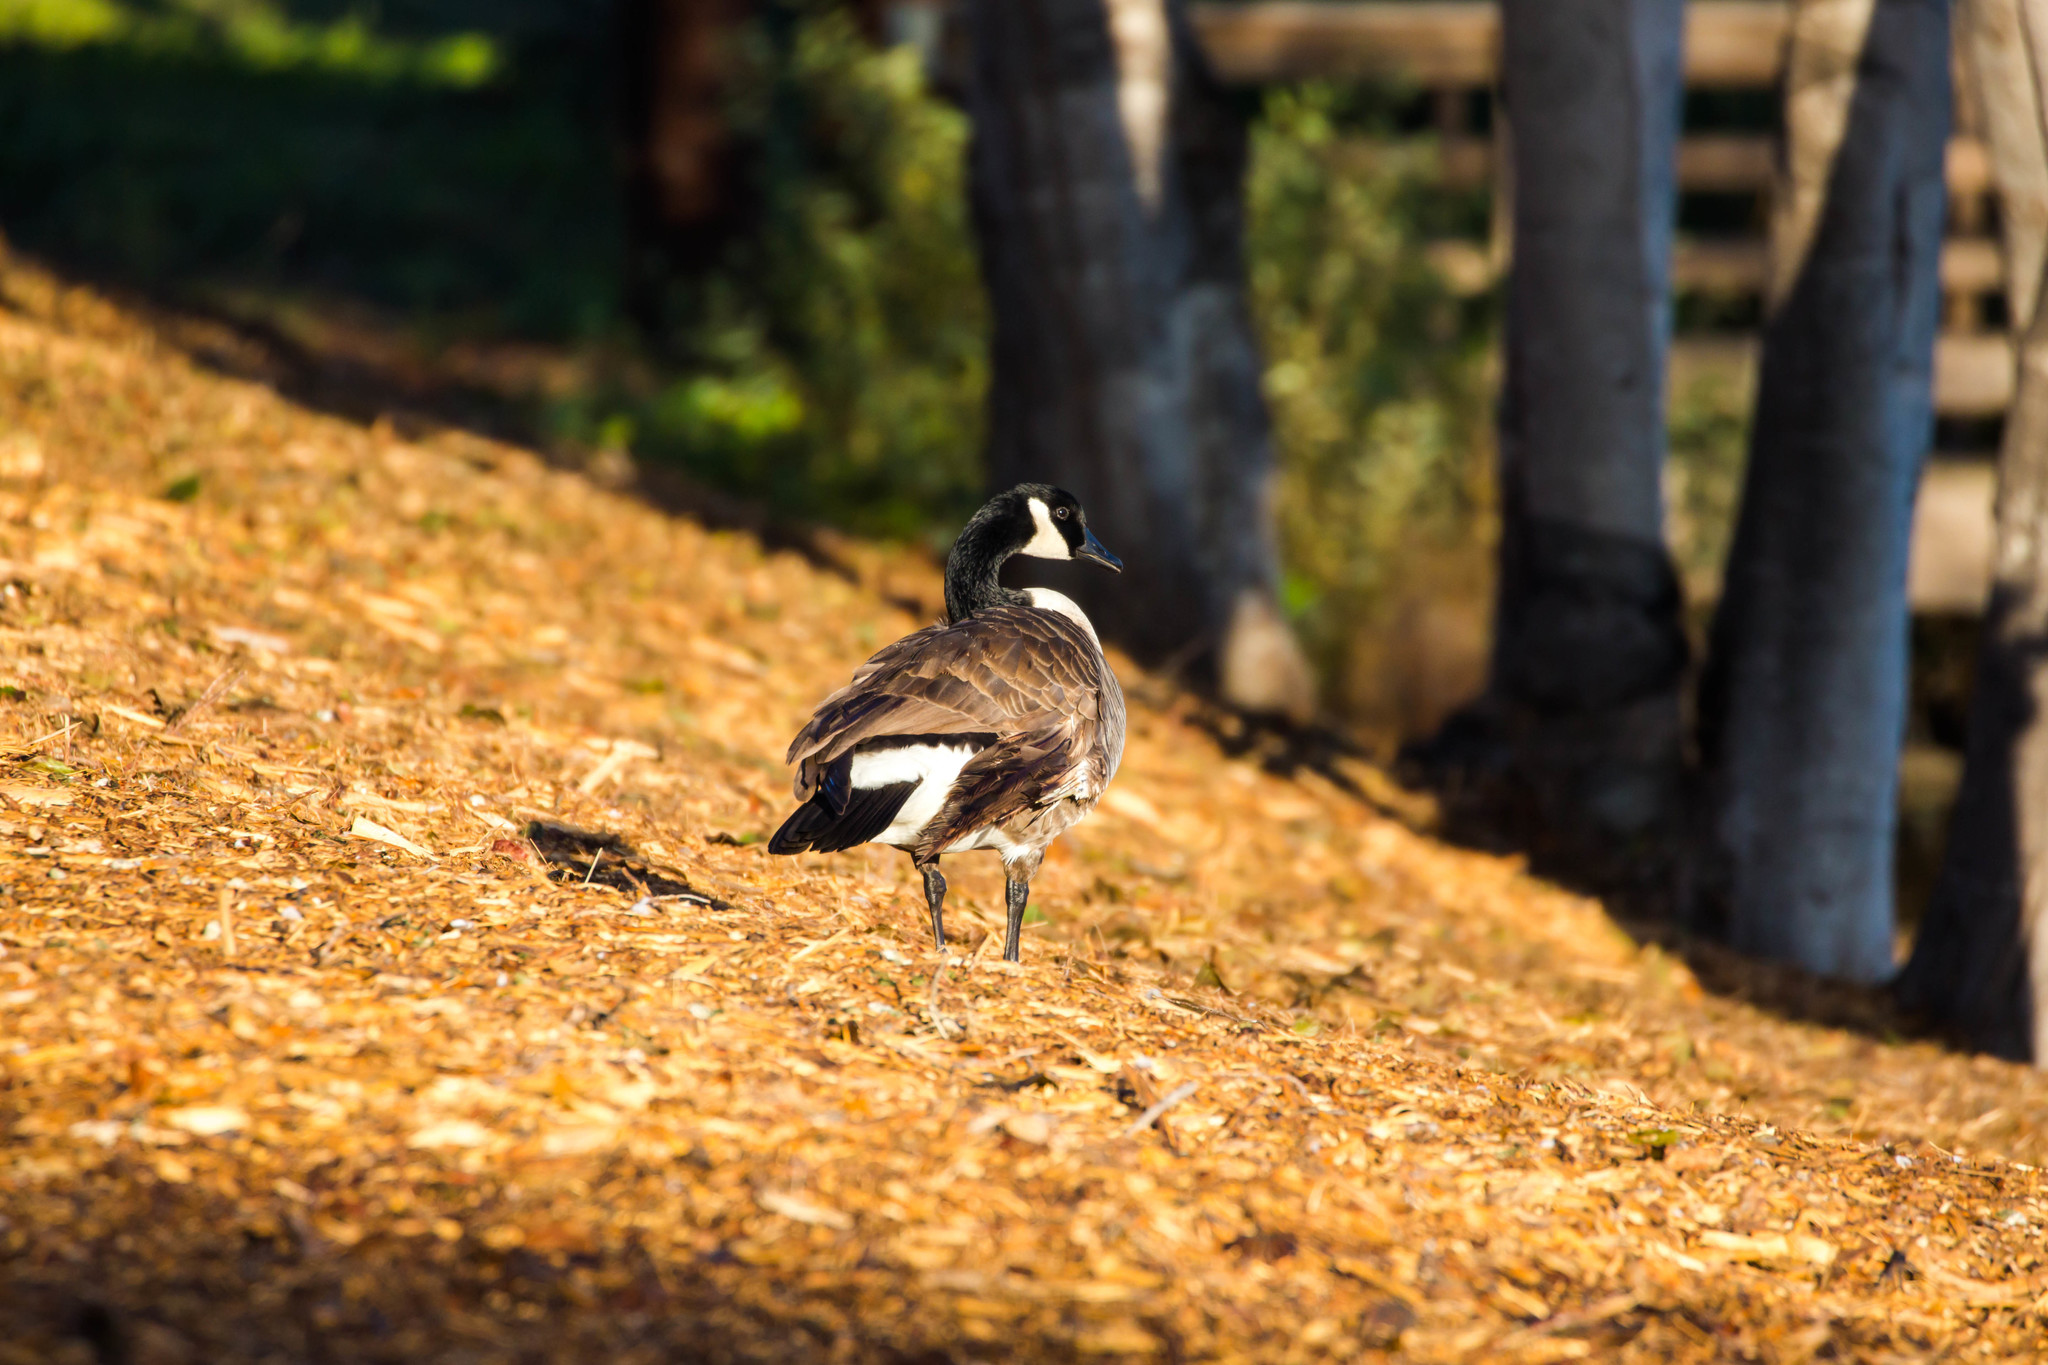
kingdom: Animalia
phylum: Chordata
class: Aves
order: Anseriformes
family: Anatidae
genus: Branta
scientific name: Branta canadensis
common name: Canada goose
